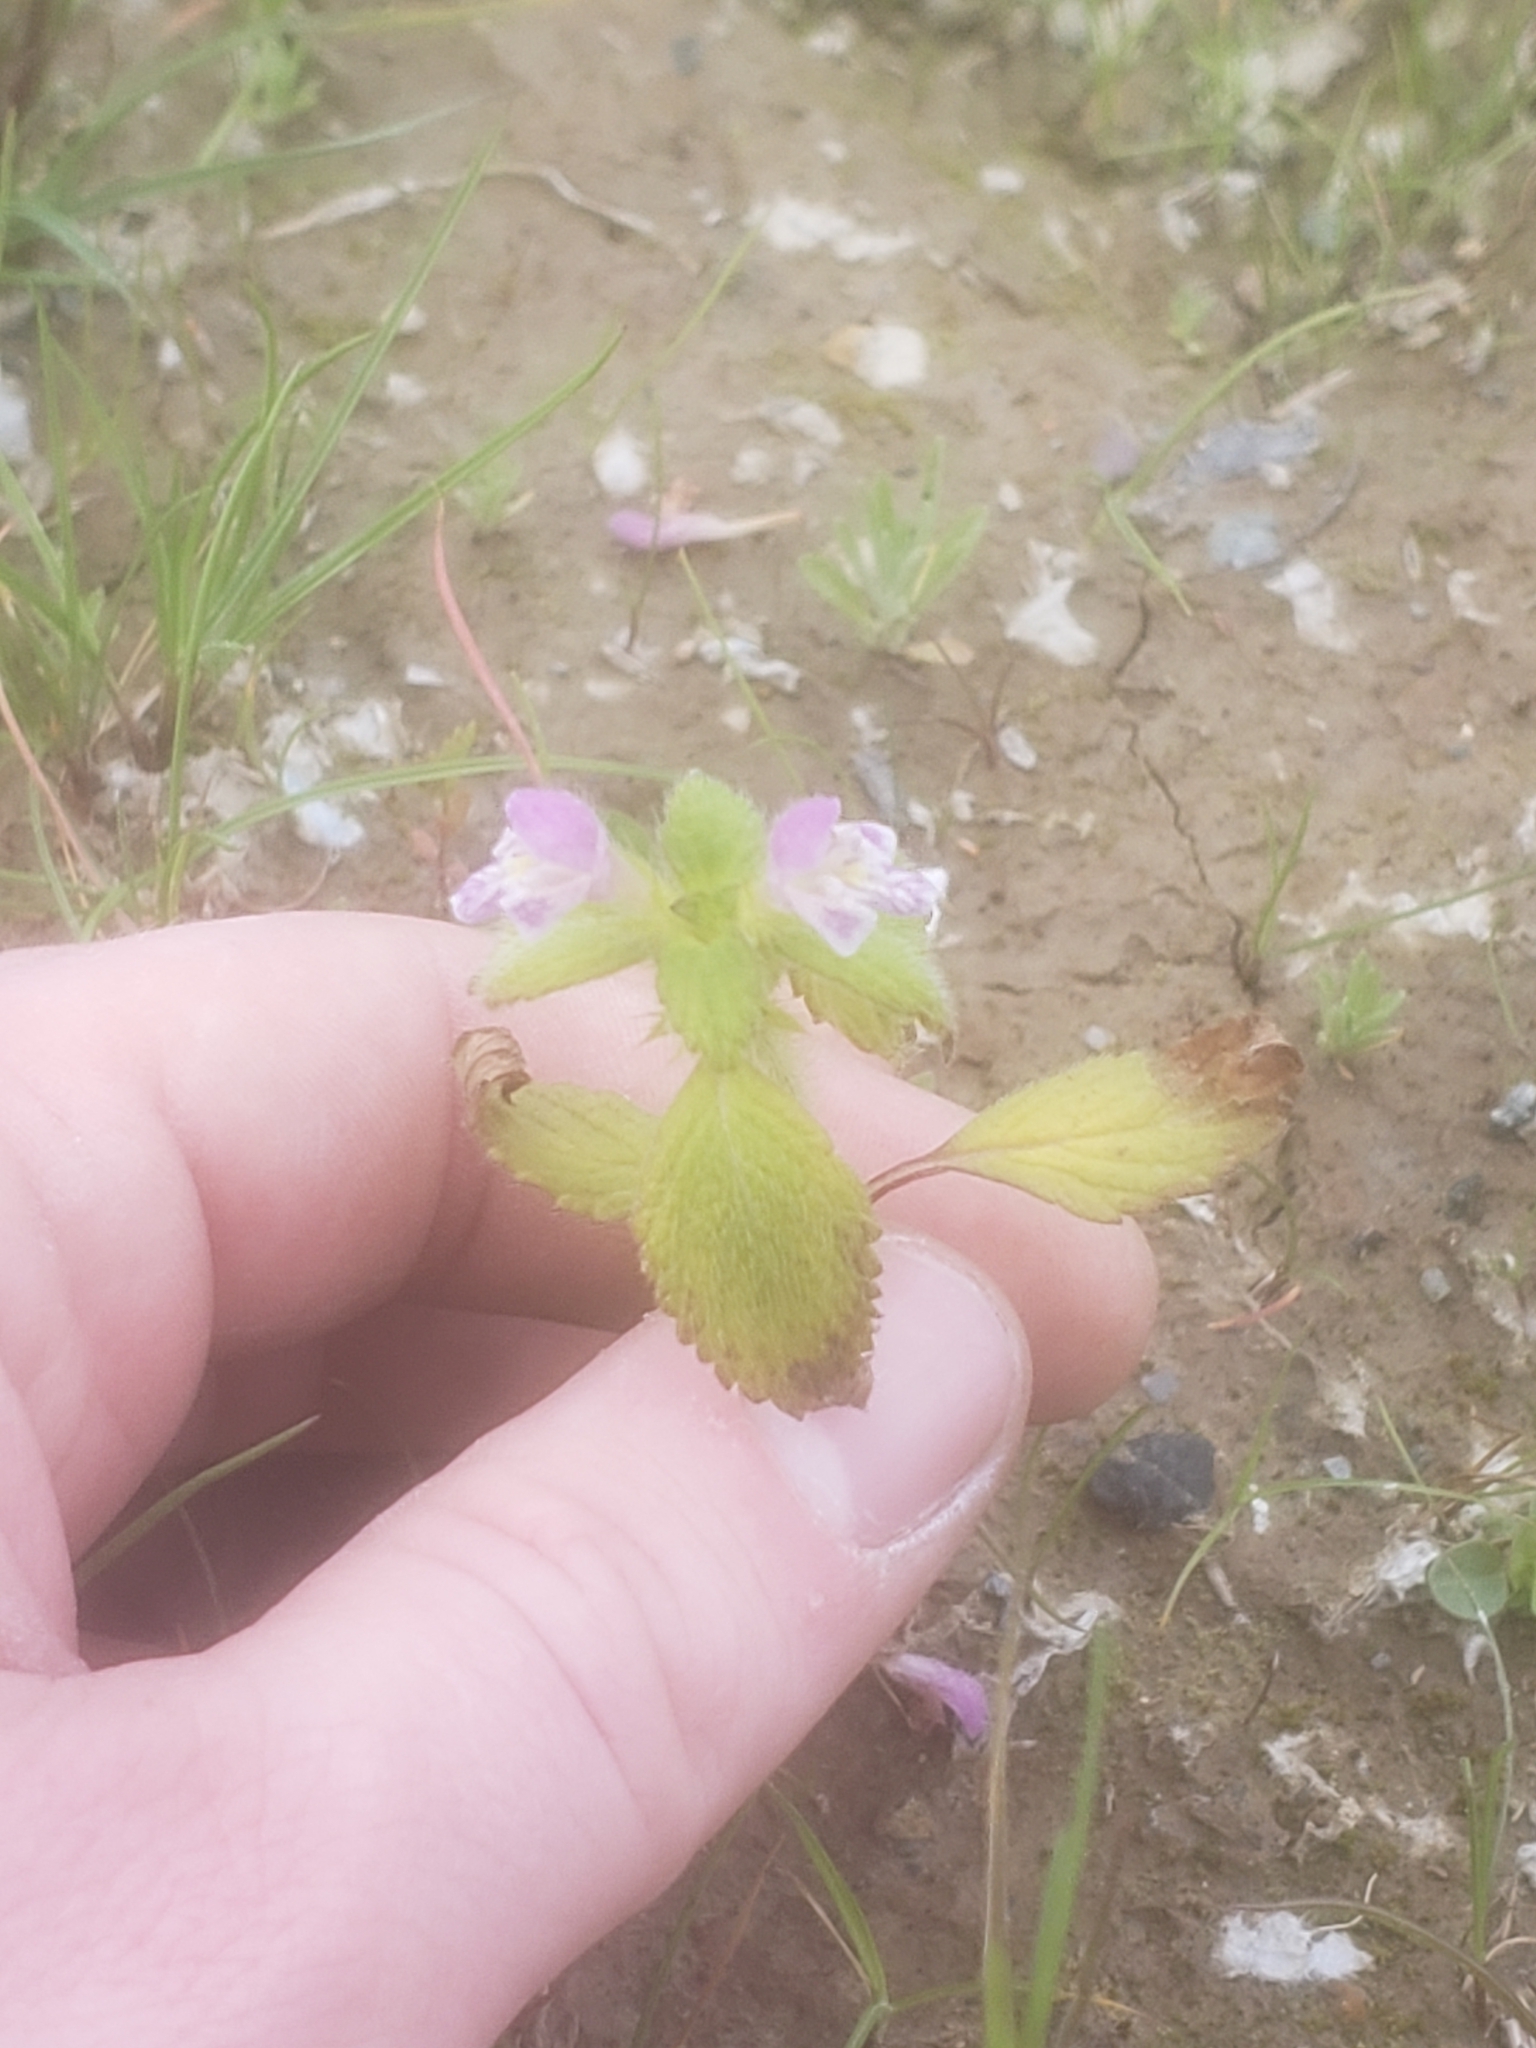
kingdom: Plantae
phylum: Tracheophyta
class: Magnoliopsida
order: Lamiales
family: Lamiaceae
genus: Galeopsis
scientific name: Galeopsis bifida
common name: Bifid hemp-nettle
